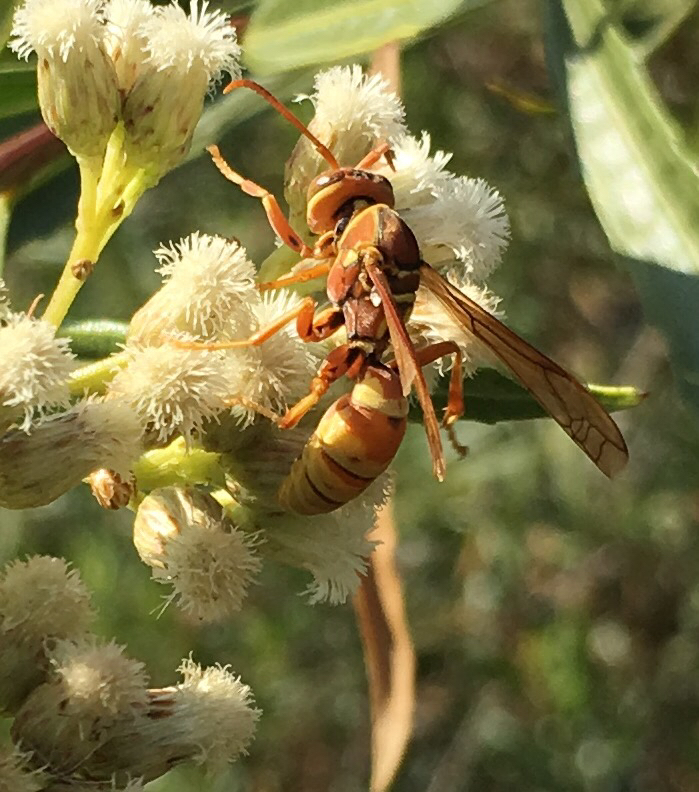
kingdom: Animalia
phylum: Arthropoda
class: Insecta
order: Hymenoptera
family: Eumenidae
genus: Polistes
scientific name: Polistes dorsalis
